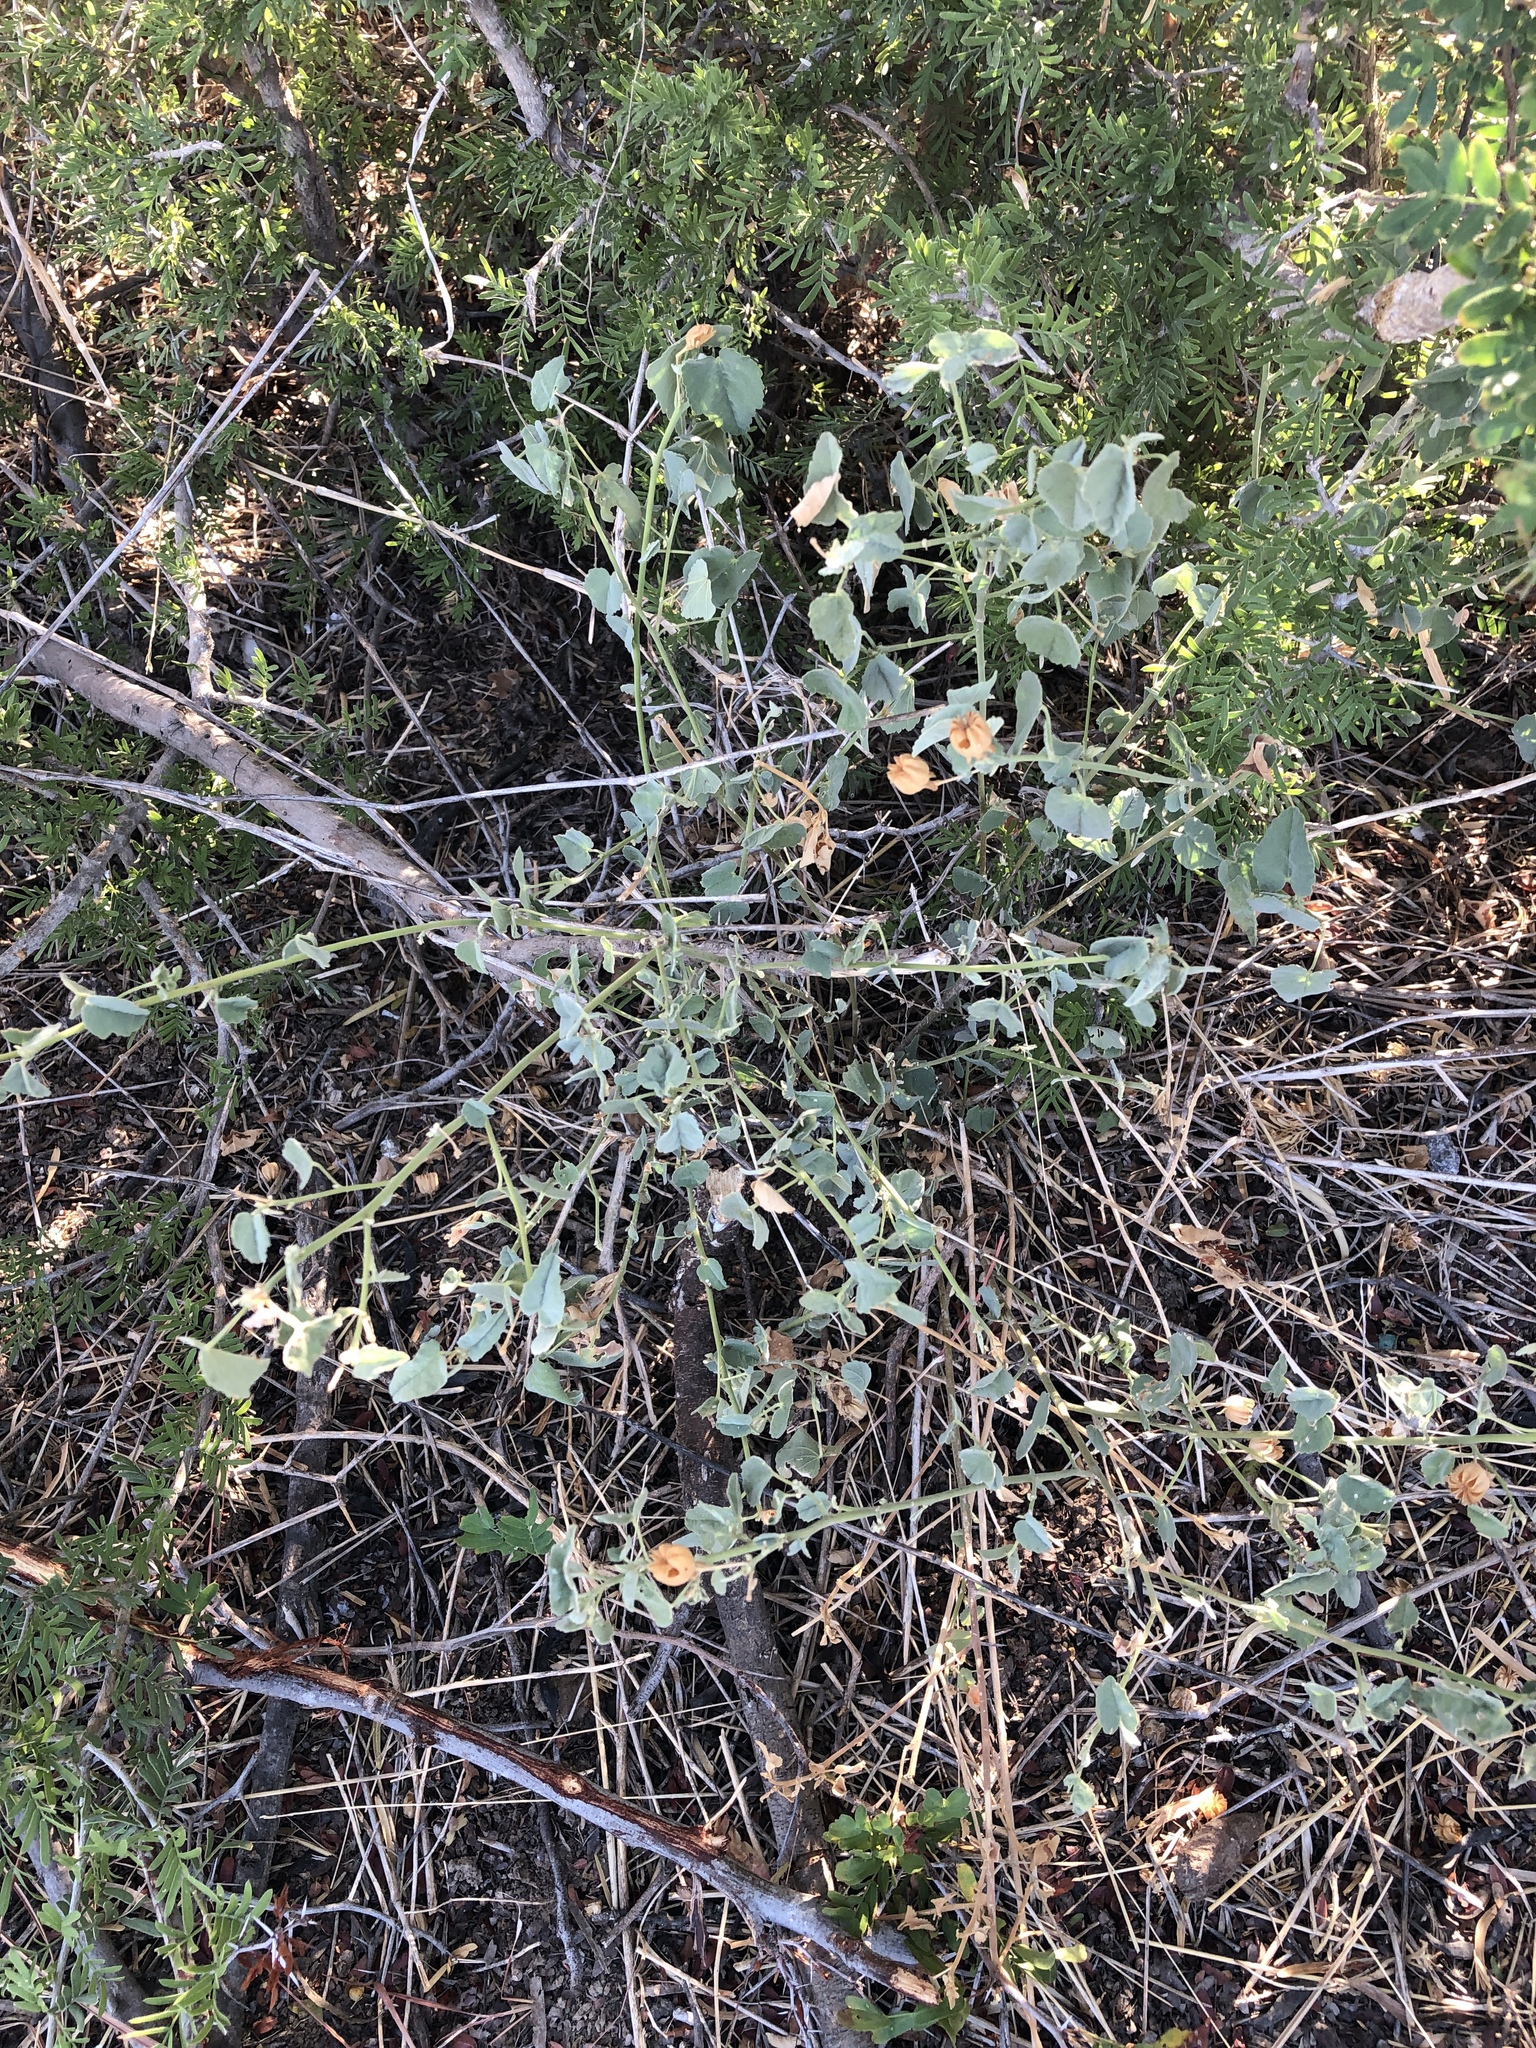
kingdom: Plantae
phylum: Tracheophyta
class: Magnoliopsida
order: Malvales
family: Malvaceae
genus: Abutilon
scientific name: Abutilon fruticosum
